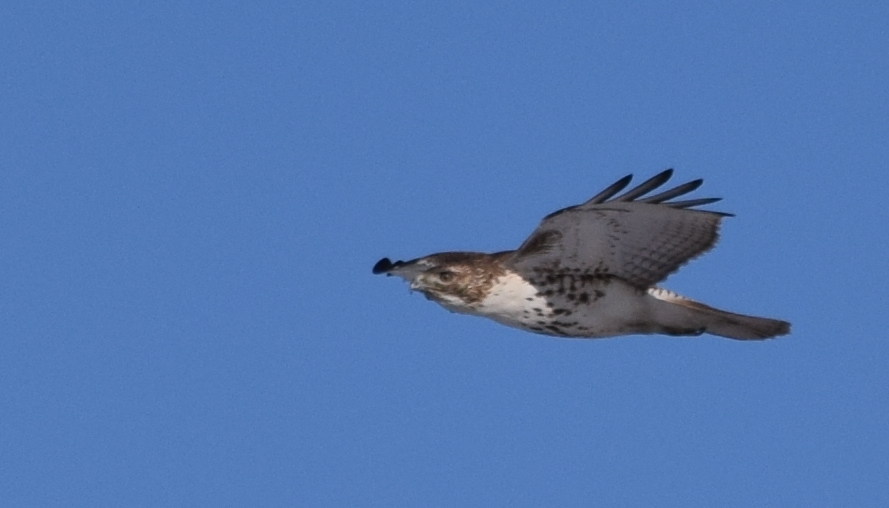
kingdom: Animalia
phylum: Chordata
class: Aves
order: Accipitriformes
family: Accipitridae
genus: Buteo
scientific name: Buteo jamaicensis
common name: Red-tailed hawk
